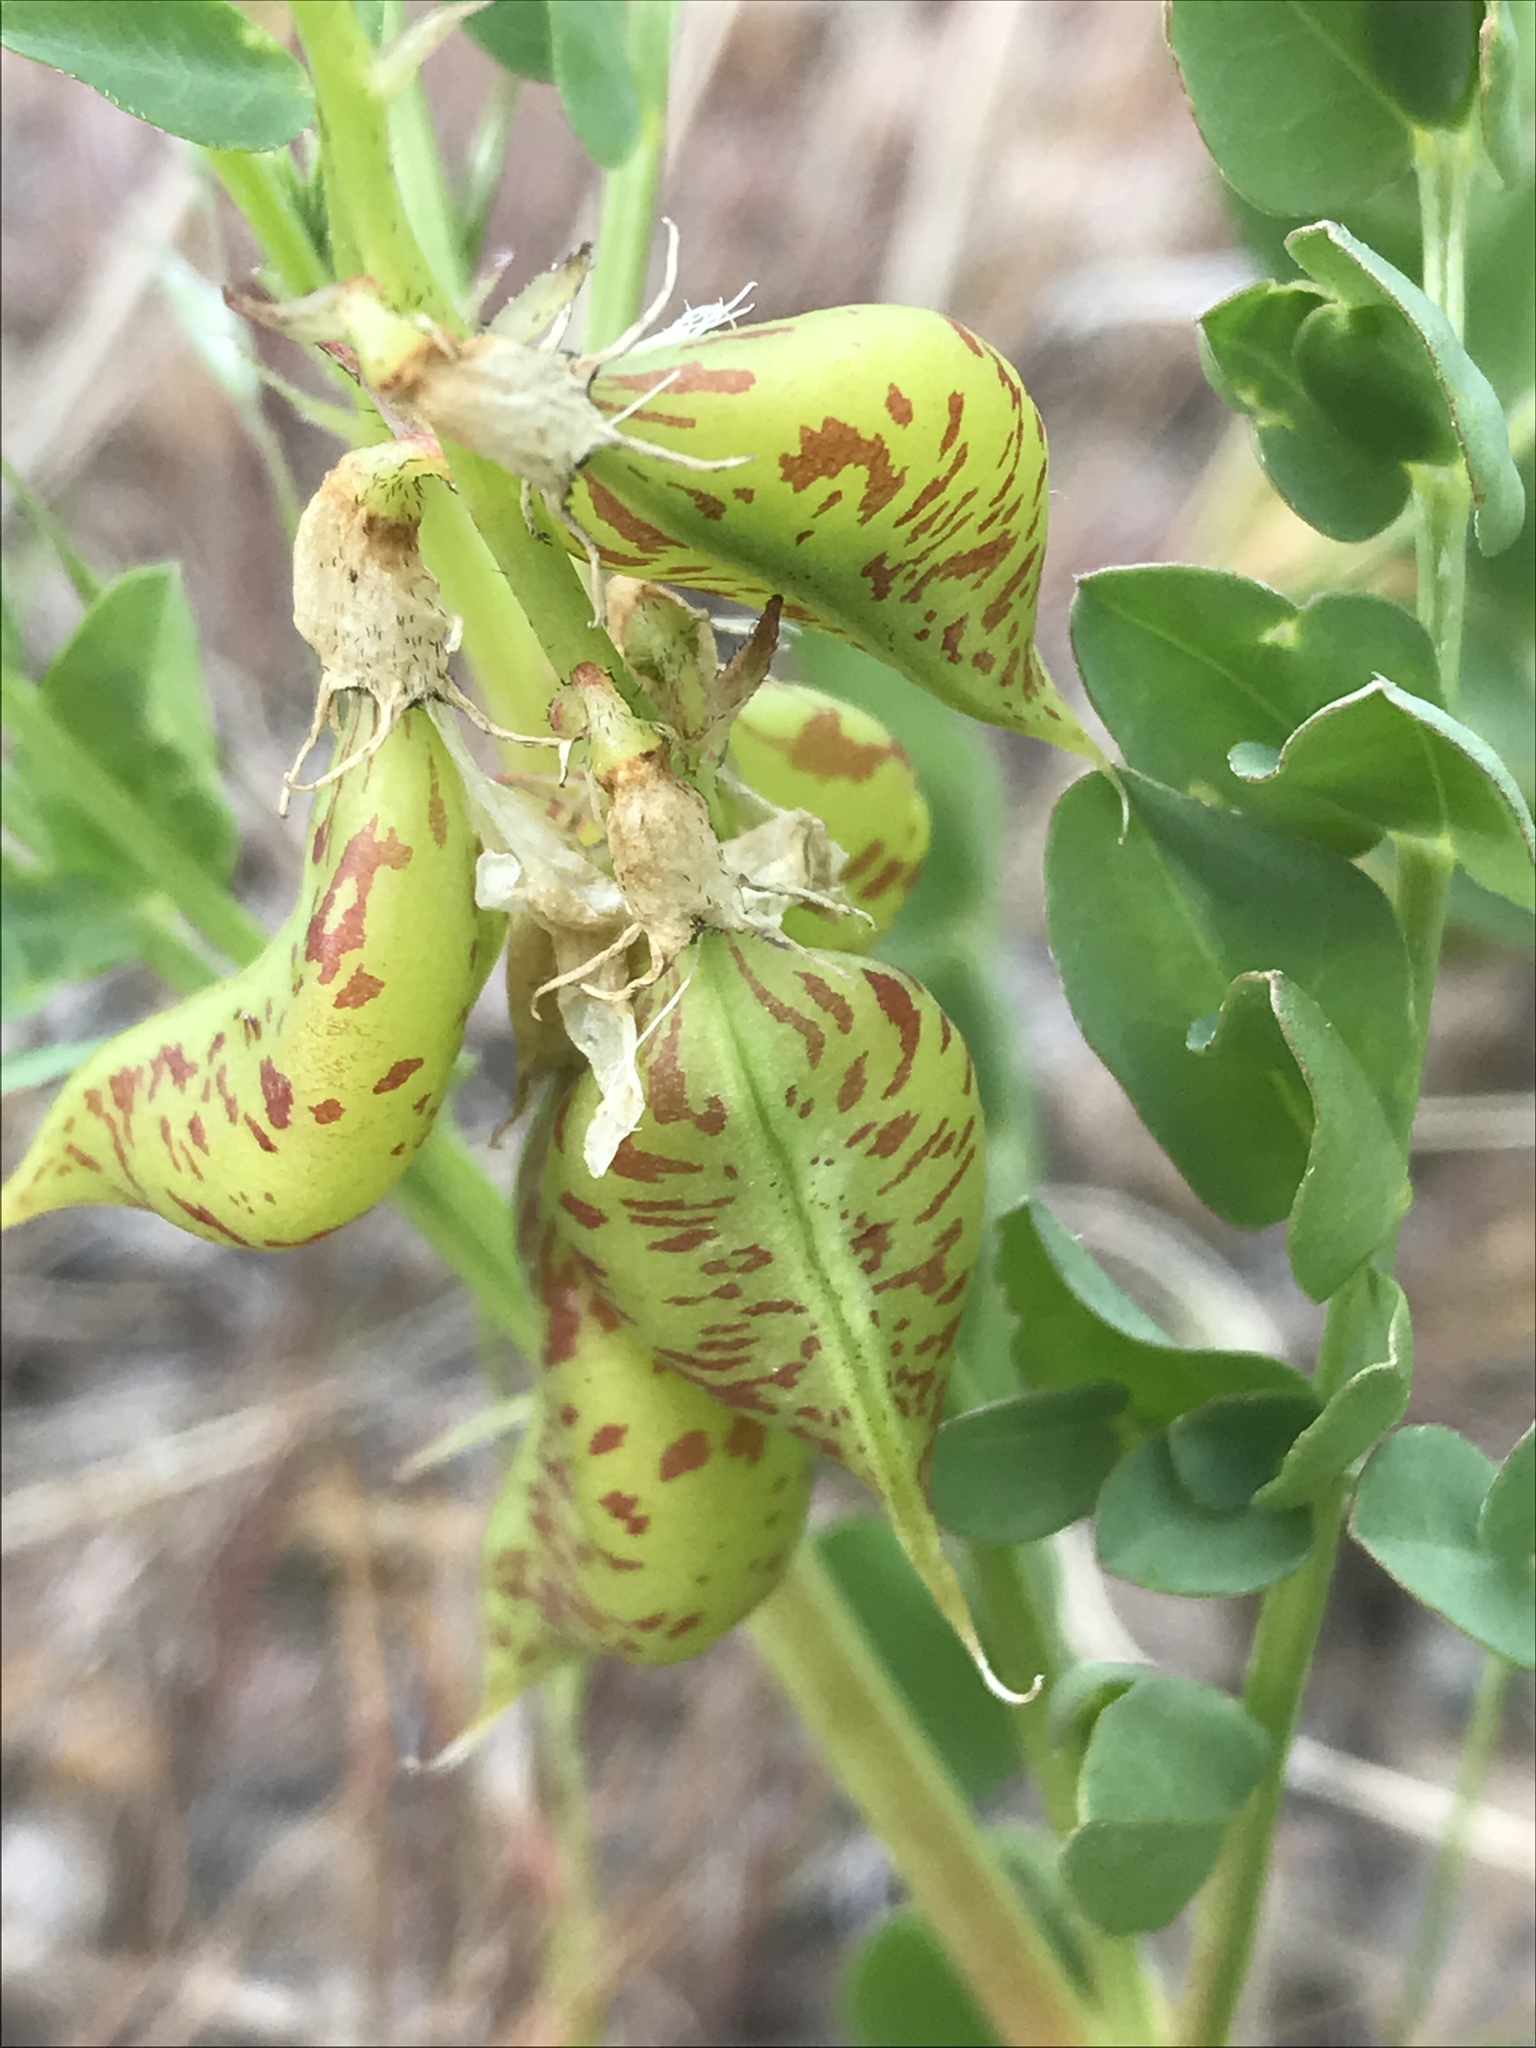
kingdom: Plantae
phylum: Tracheophyta
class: Magnoliopsida
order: Fabales
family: Fabaceae
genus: Astragalus
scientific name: Astragalus beckwithii
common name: Beckwith's milk-vetch
